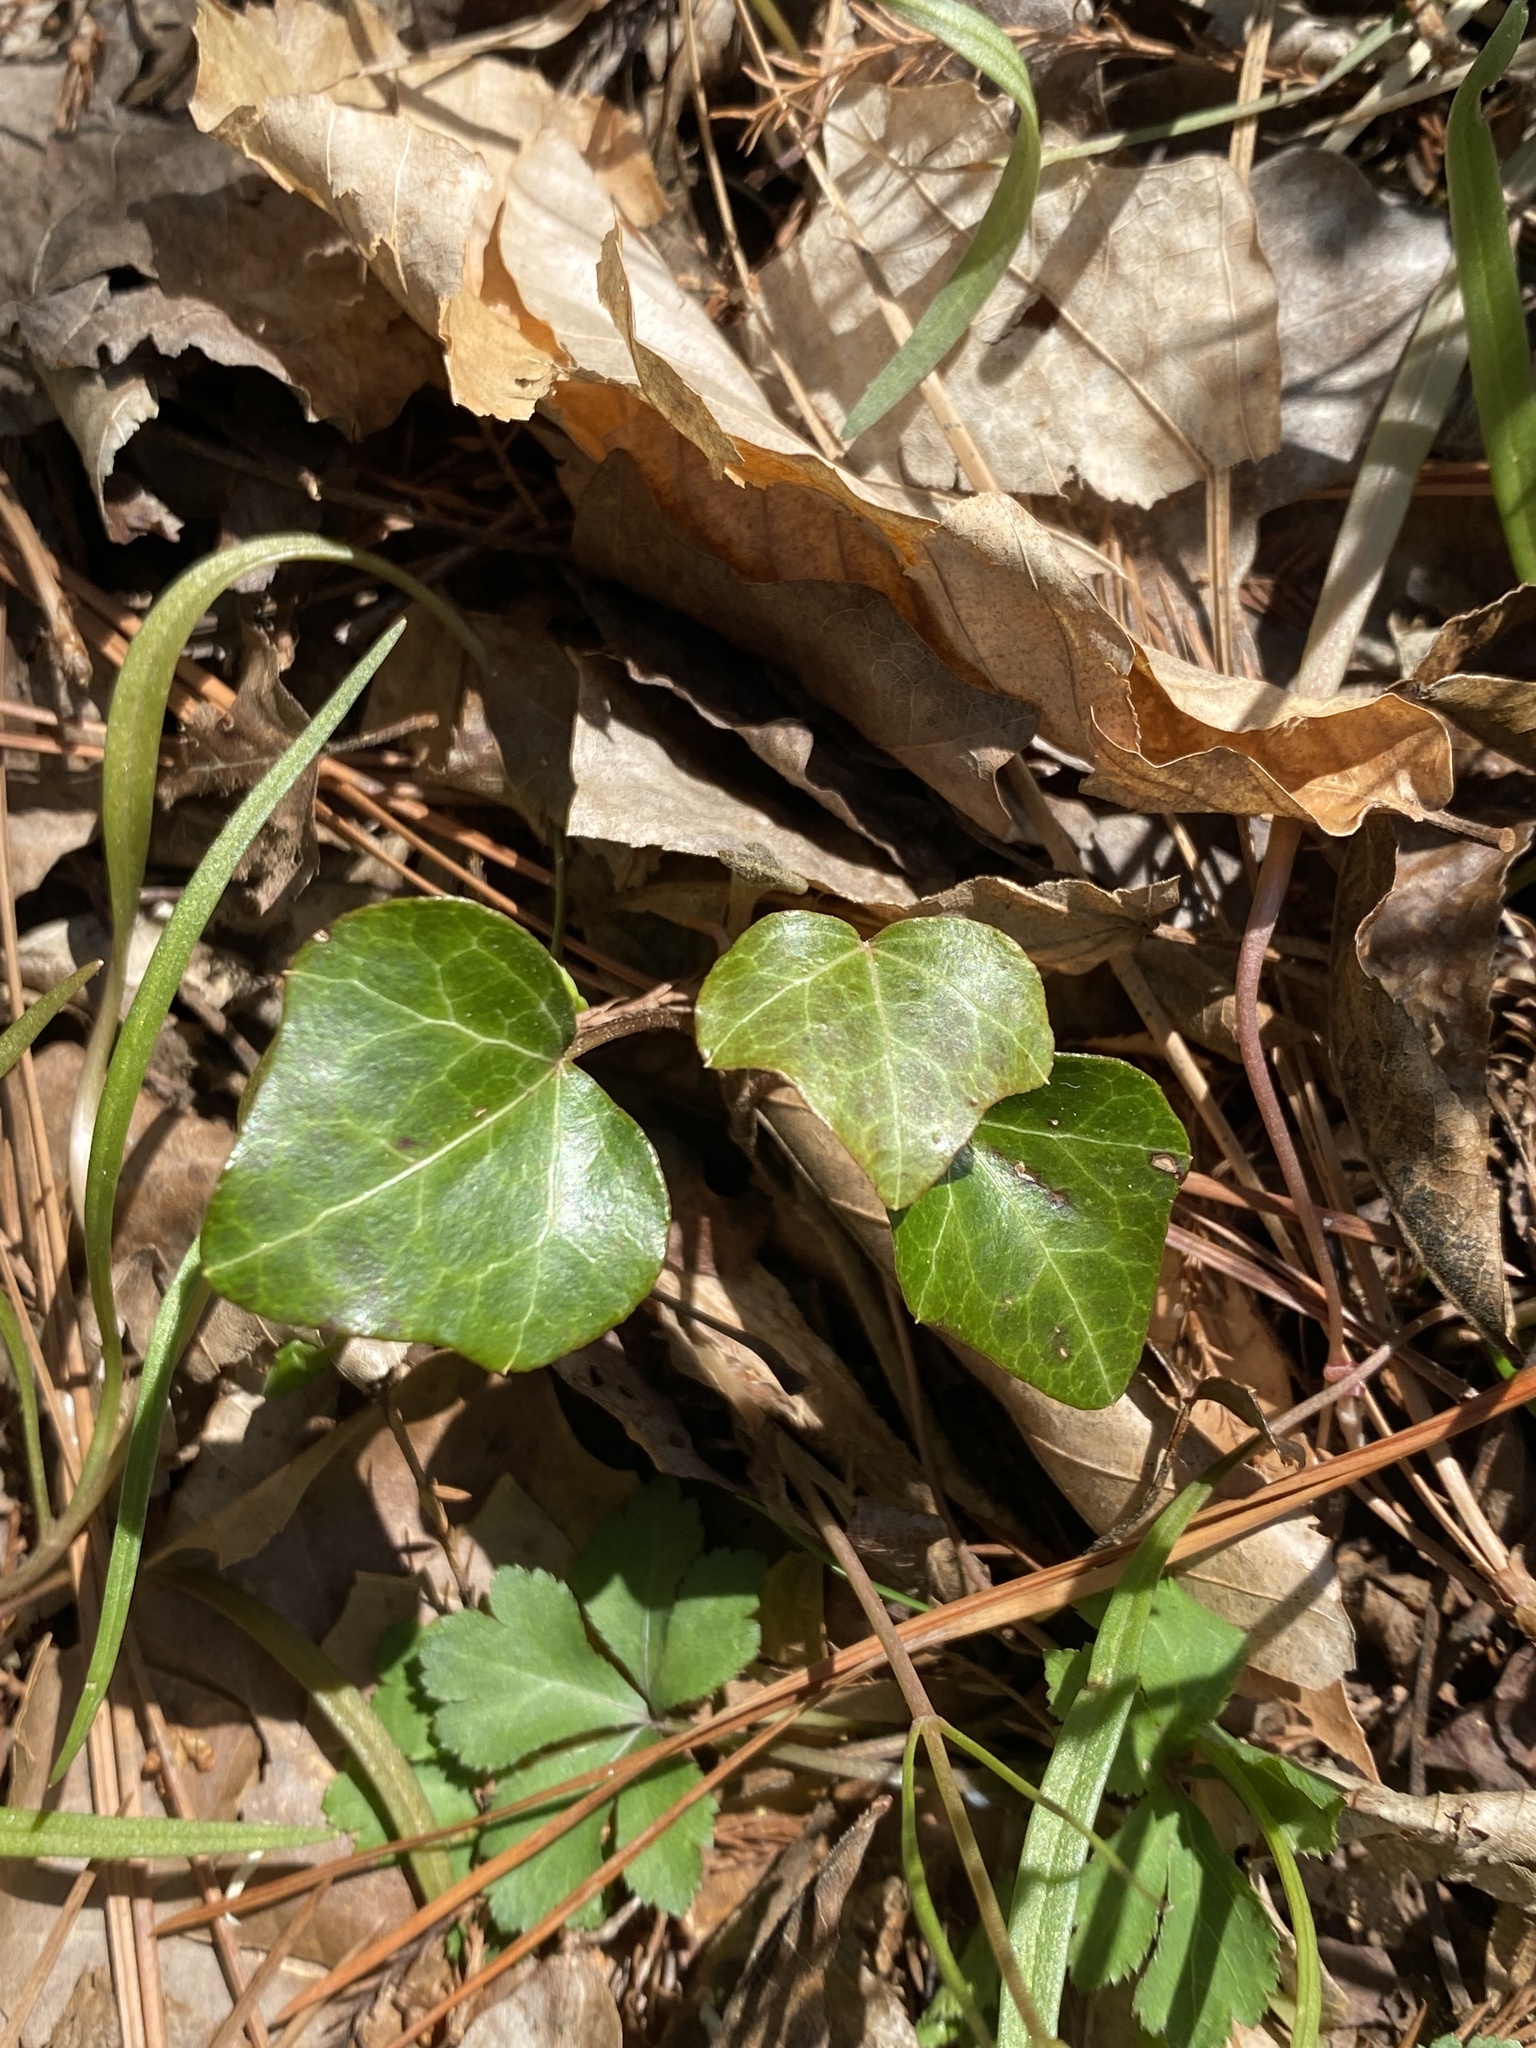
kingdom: Plantae
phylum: Tracheophyta
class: Magnoliopsida
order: Apiales
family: Araliaceae
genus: Hedera
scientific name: Hedera helix
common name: Ivy
